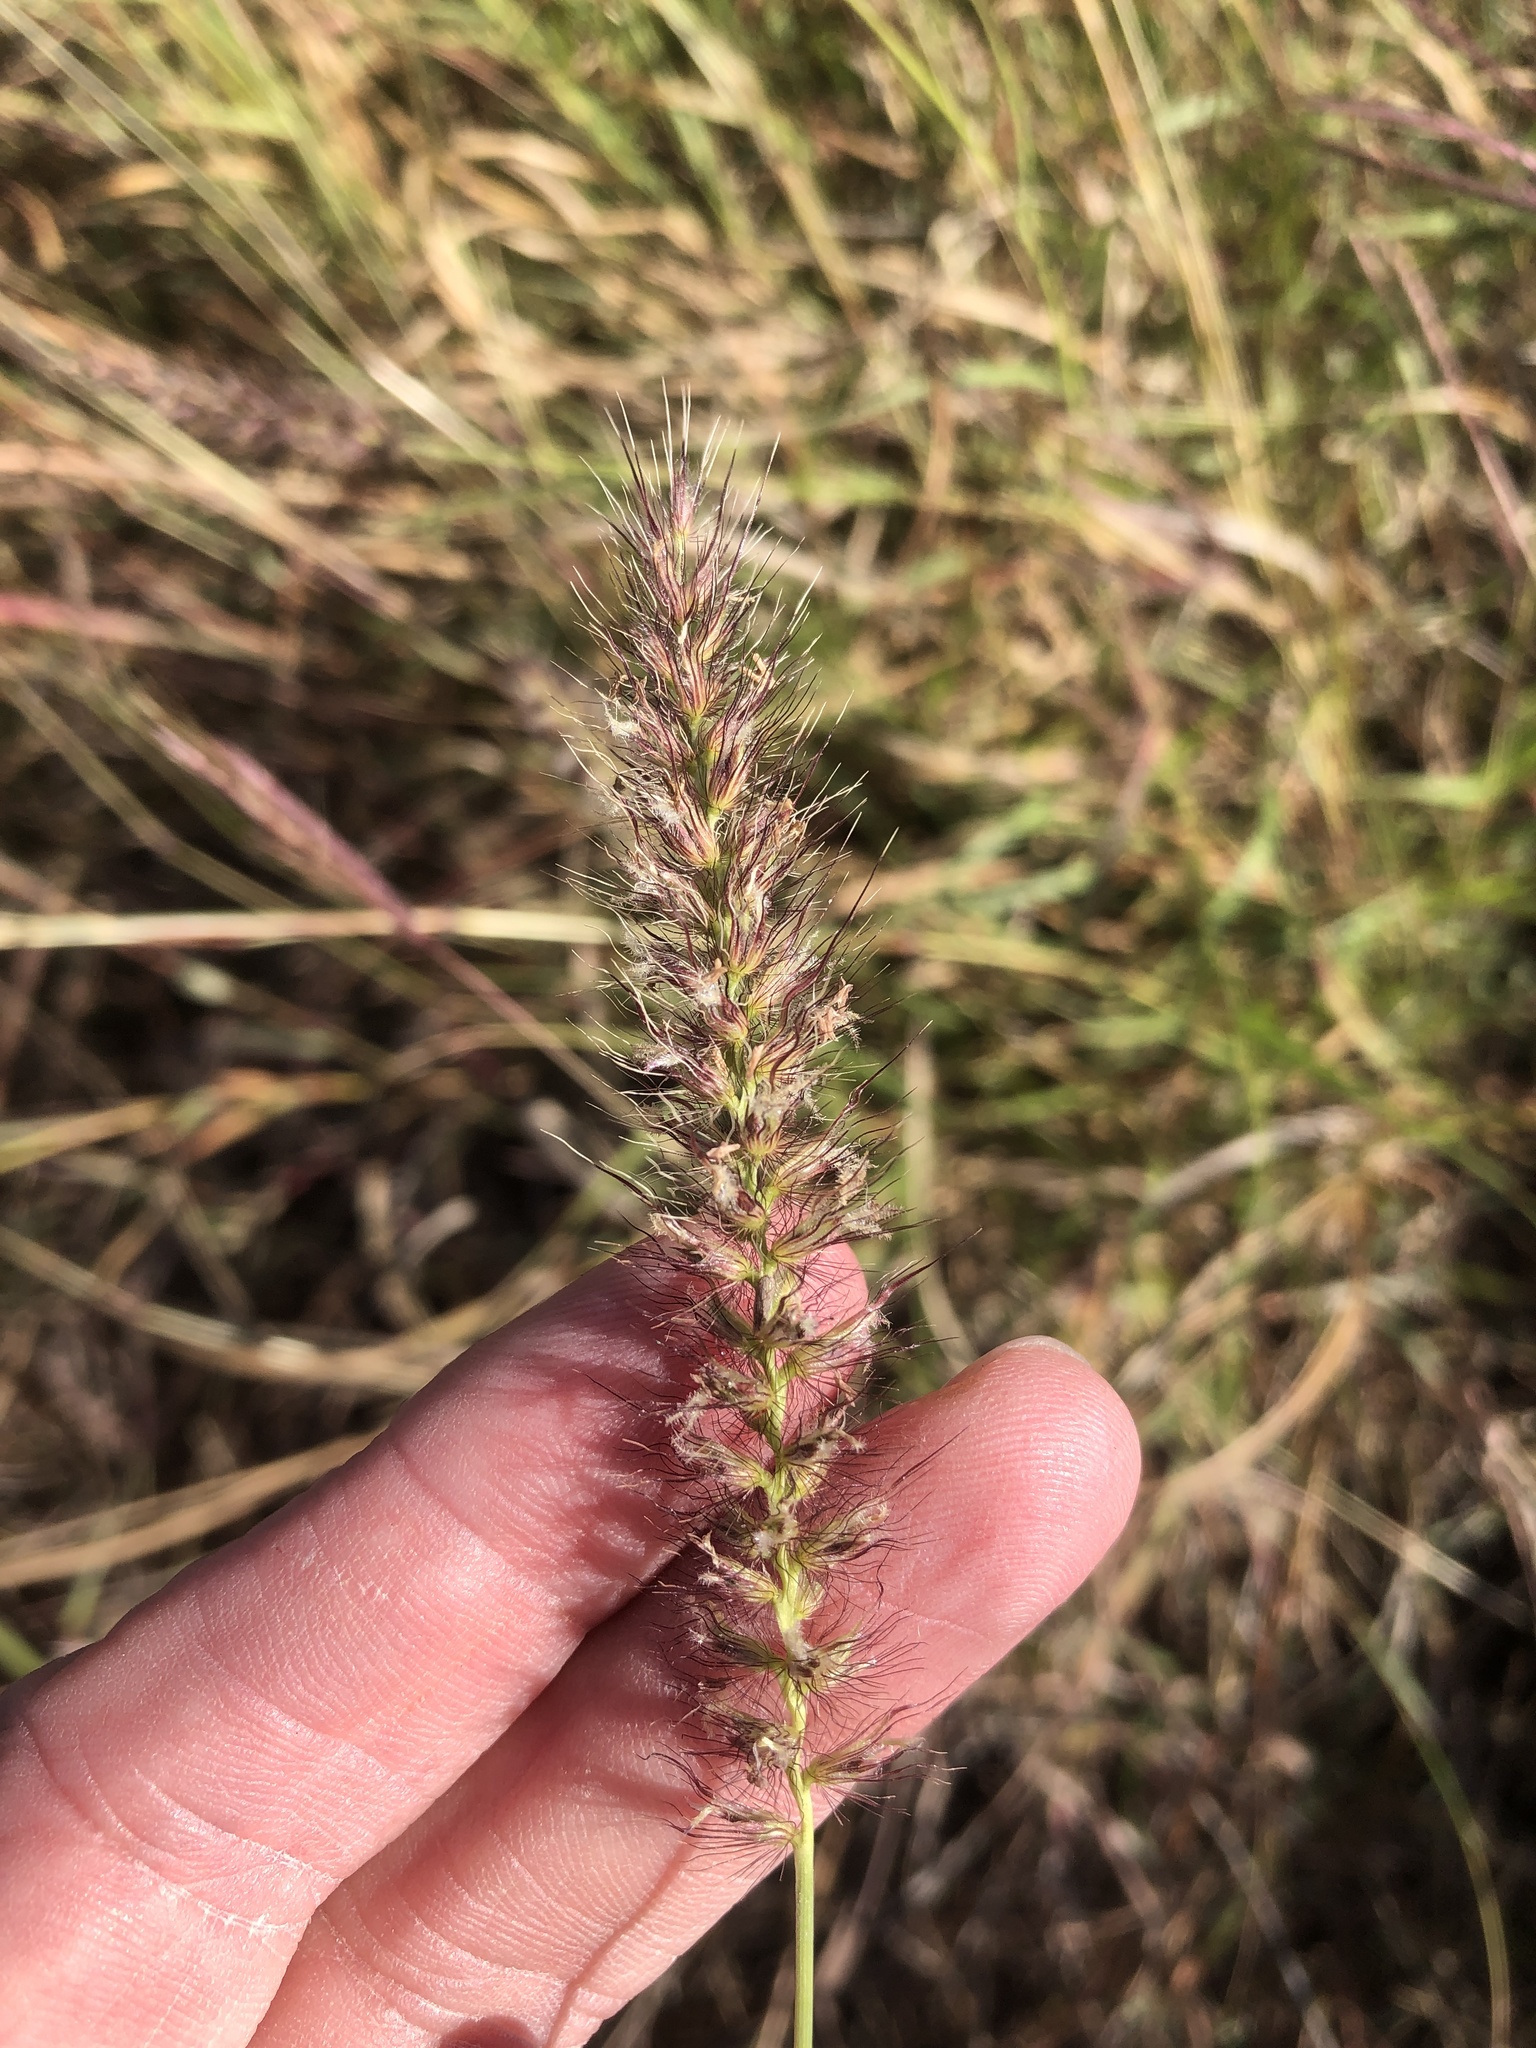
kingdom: Plantae
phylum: Tracheophyta
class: Liliopsida
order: Poales
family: Poaceae
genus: Cenchrus
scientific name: Cenchrus ciliaris
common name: Buffelgrass
